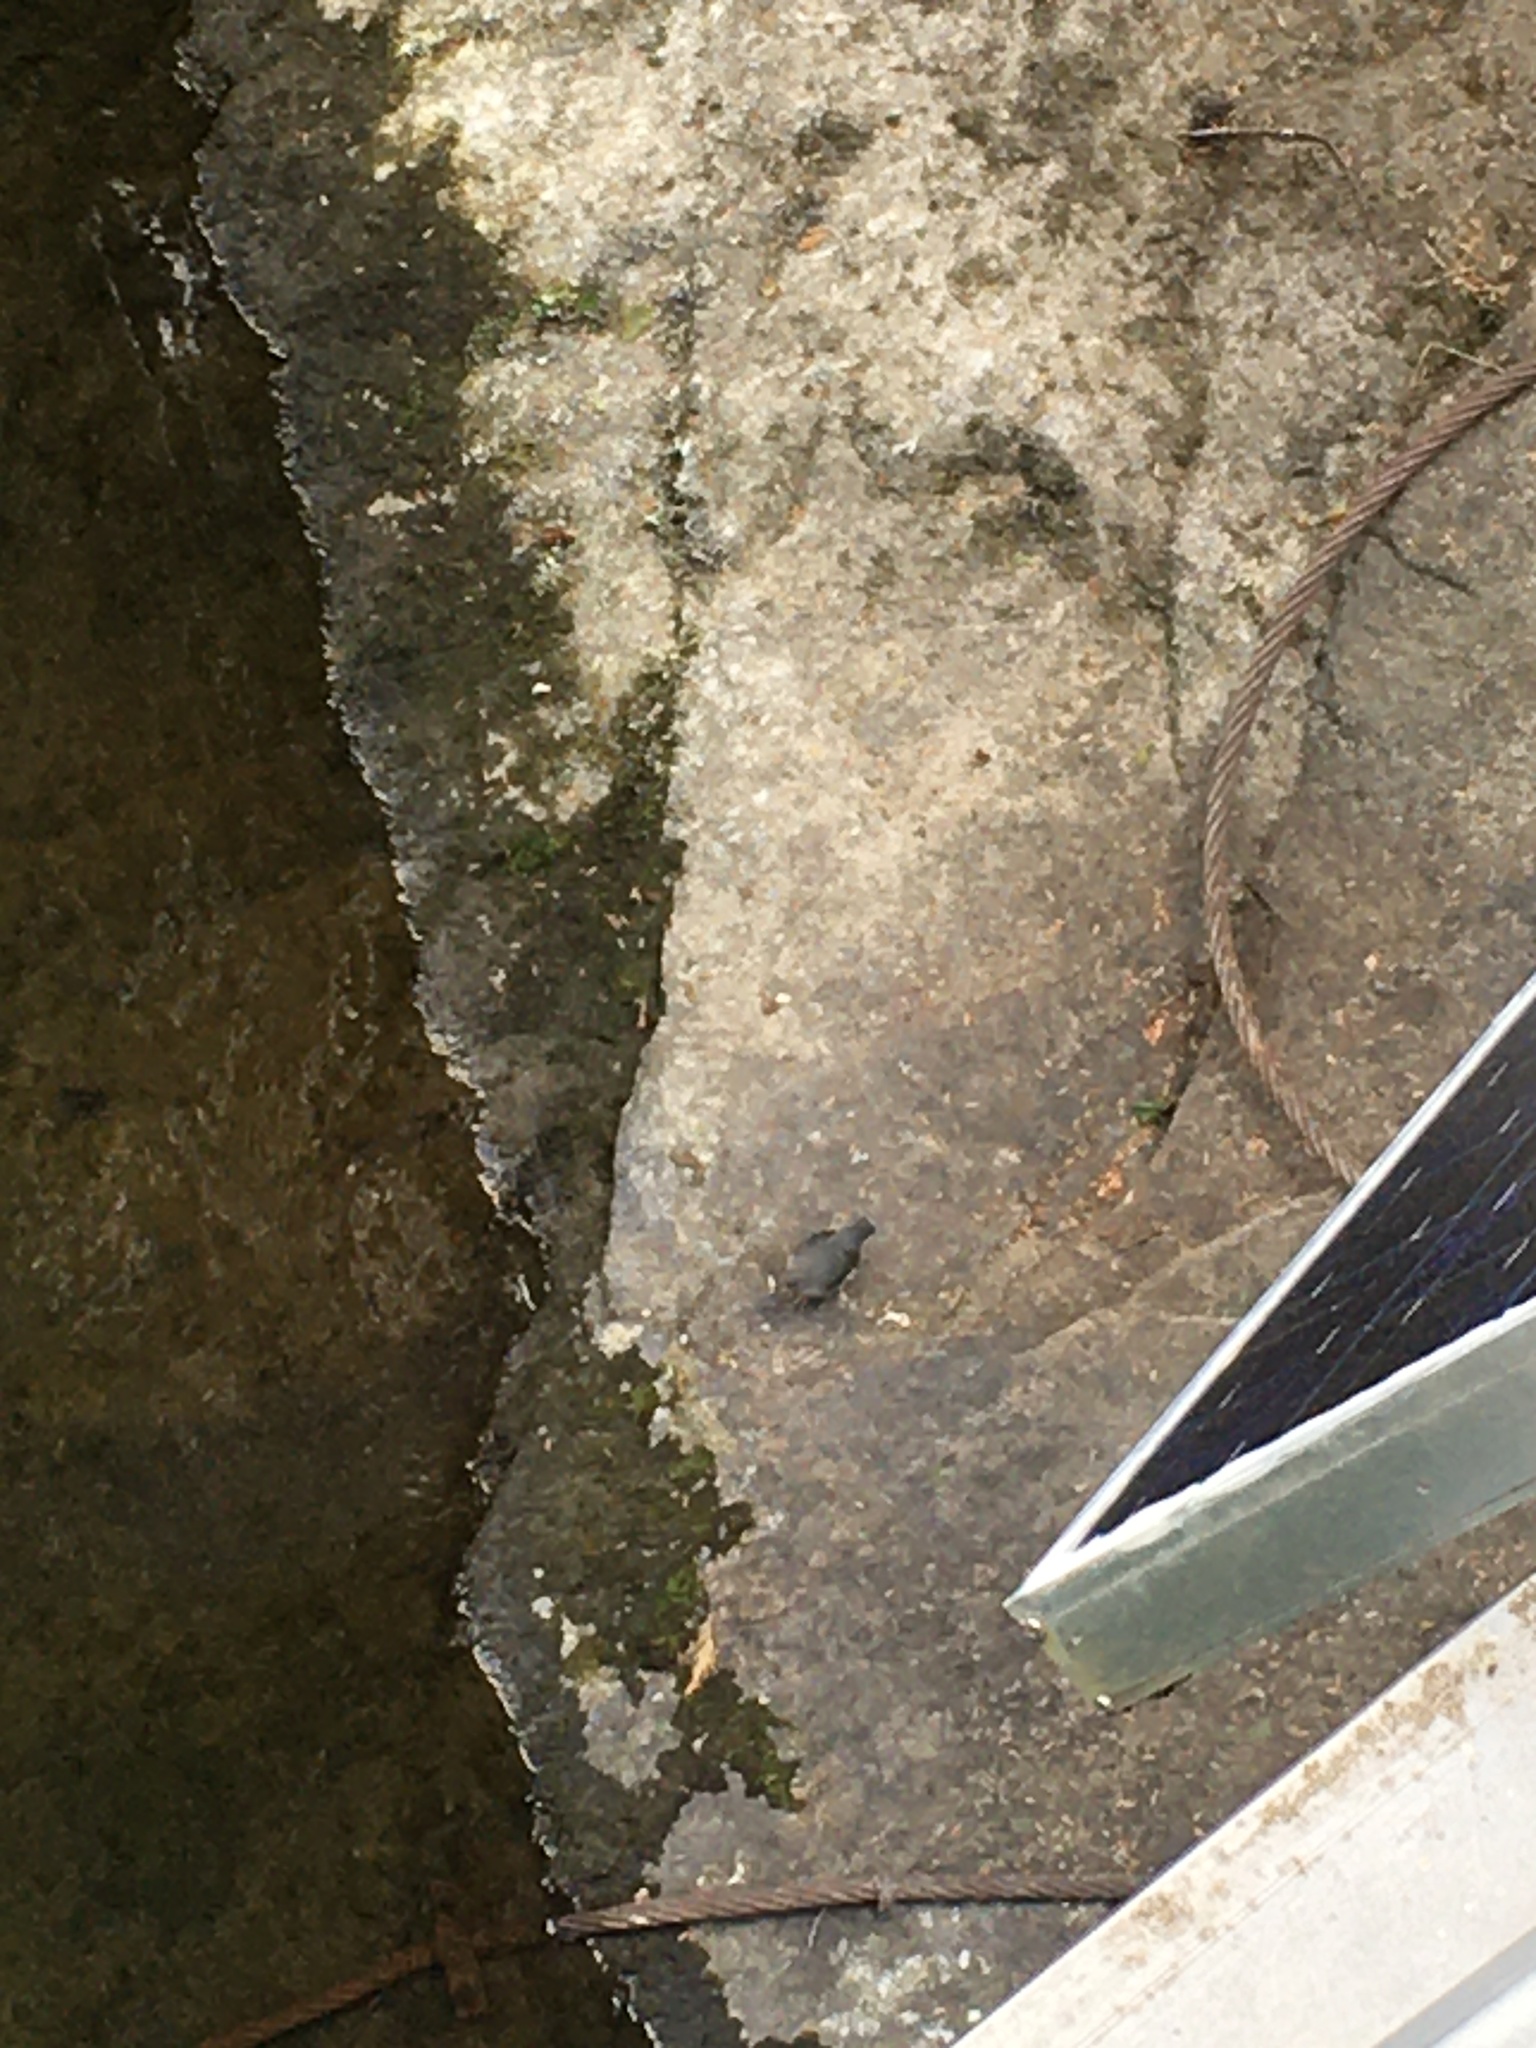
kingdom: Animalia
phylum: Chordata
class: Aves
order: Passeriformes
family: Cinclidae
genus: Cinclus
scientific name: Cinclus mexicanus
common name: American dipper
